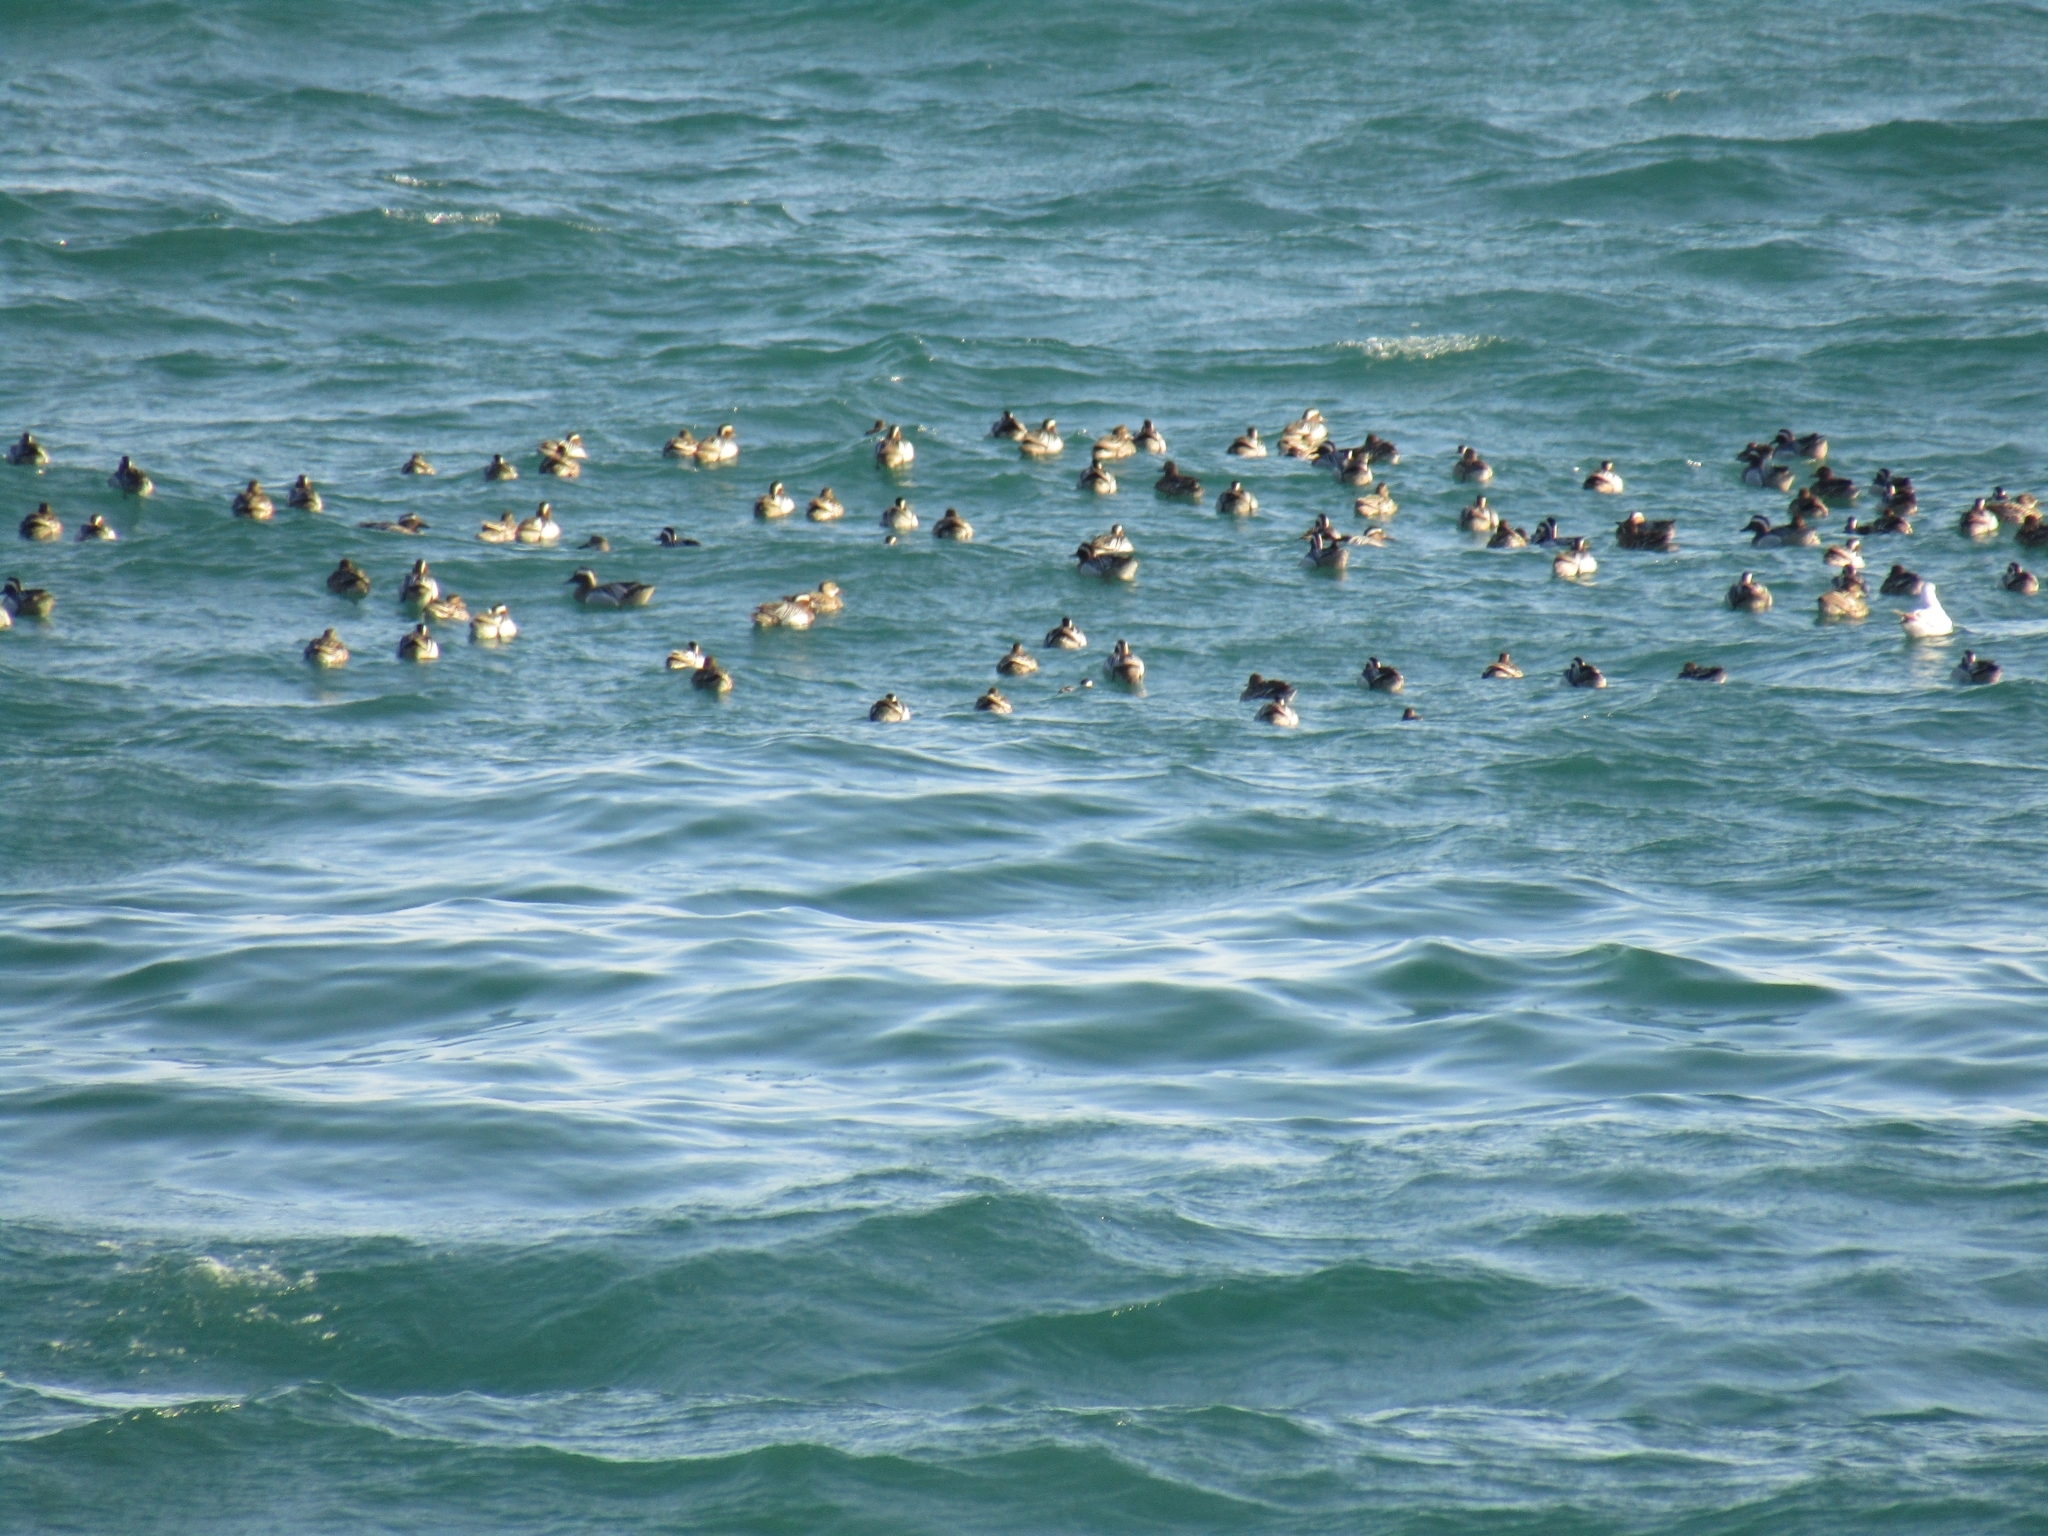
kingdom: Animalia
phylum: Chordata
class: Aves
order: Anseriformes
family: Anatidae
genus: Spatula
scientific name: Spatula querquedula
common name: Garganey
